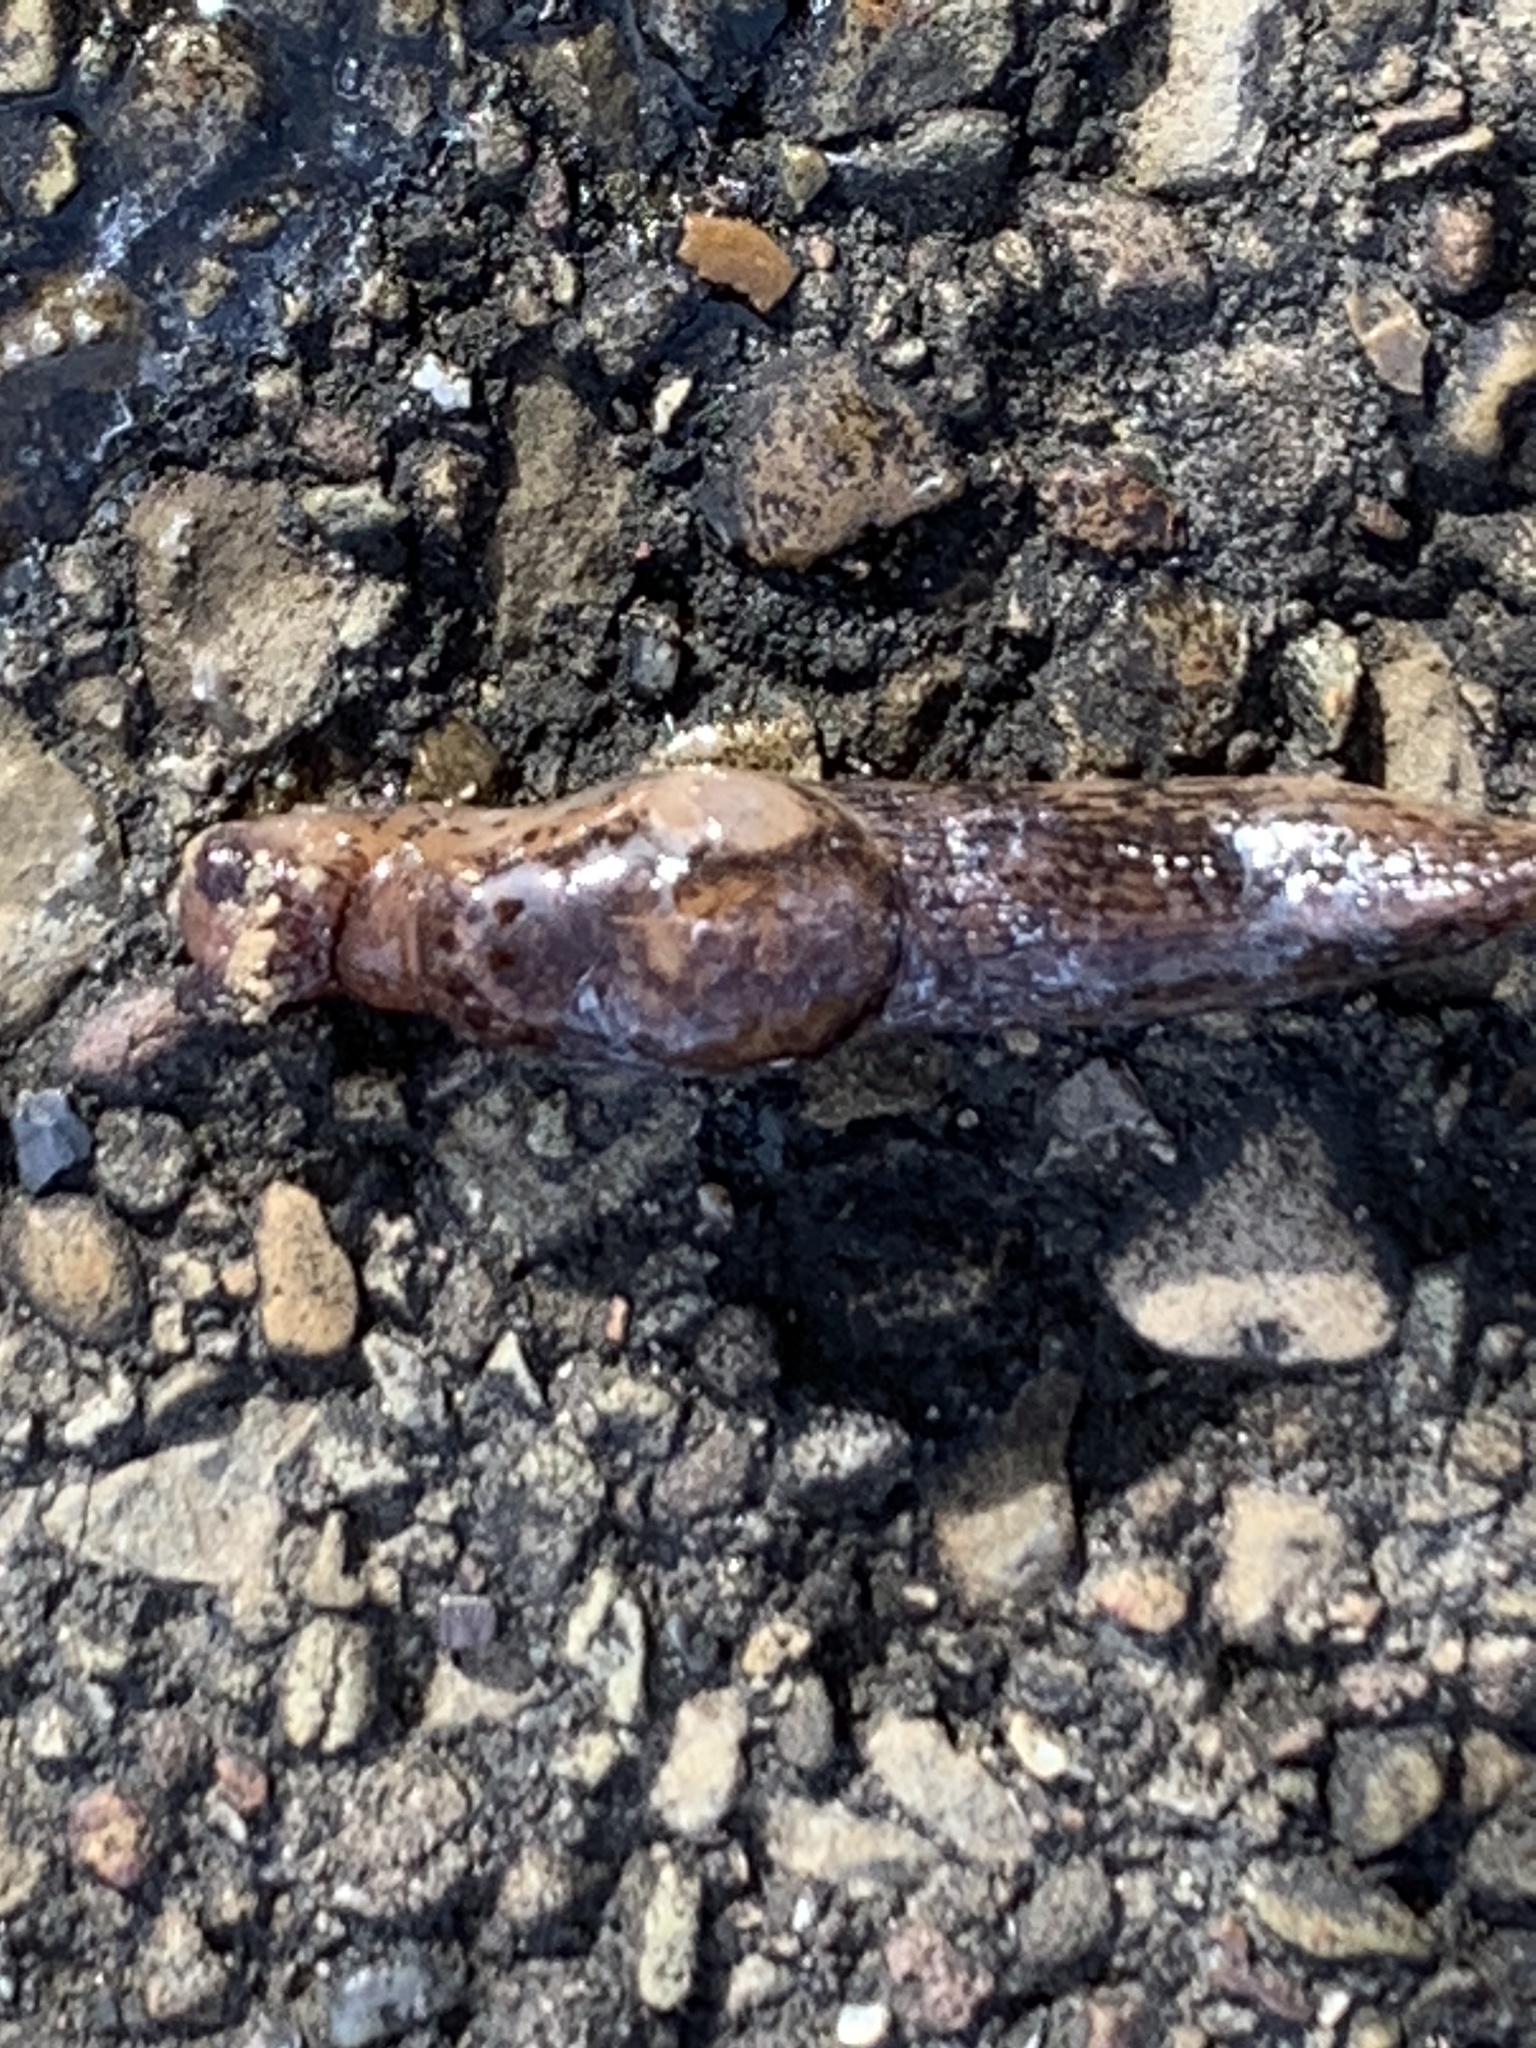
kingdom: Animalia
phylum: Mollusca
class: Gastropoda
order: Stylommatophora
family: Agriolimacidae
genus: Deroceras
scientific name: Deroceras reticulatum
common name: Gray field slug
